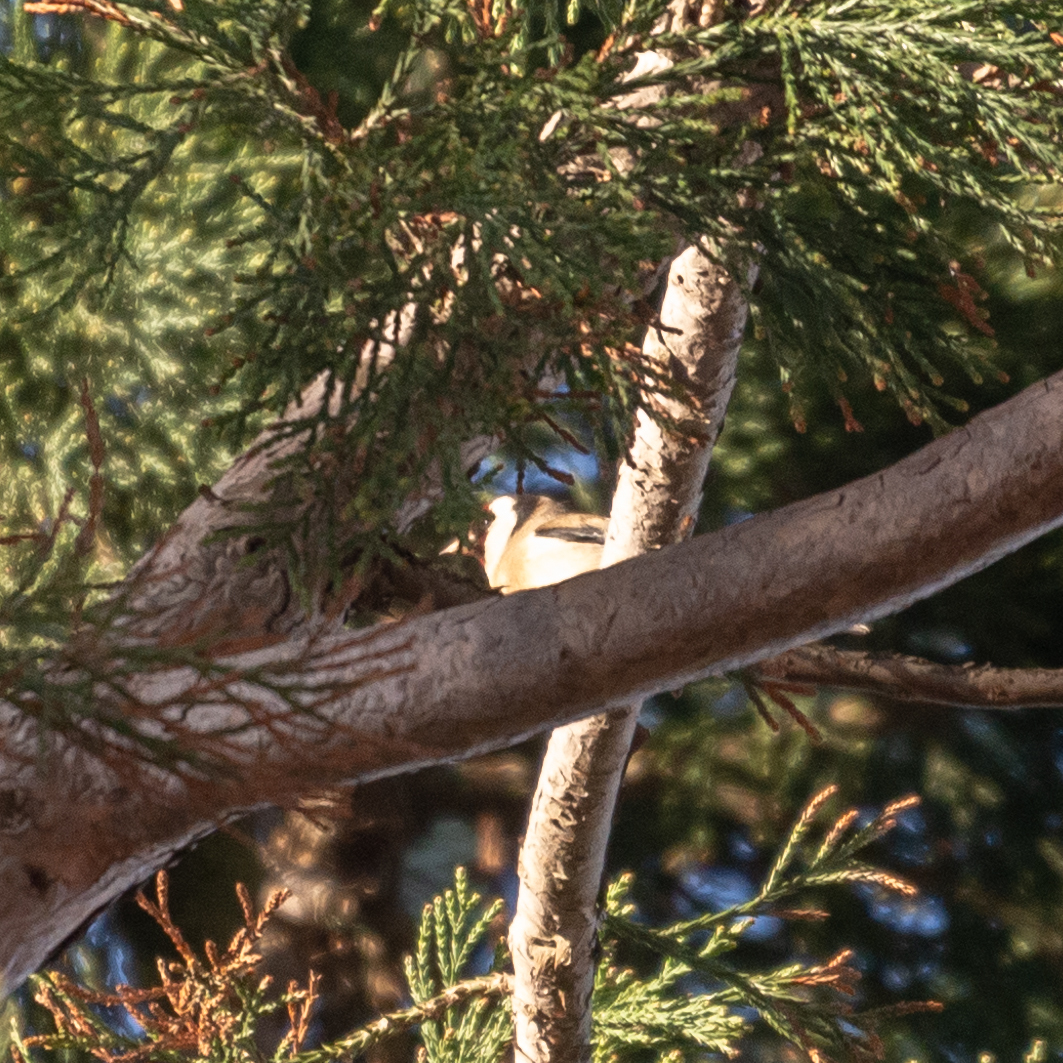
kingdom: Animalia
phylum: Chordata
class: Aves
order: Passeriformes
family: Fringillidae
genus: Carduelis
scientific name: Carduelis carduelis
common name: European goldfinch
